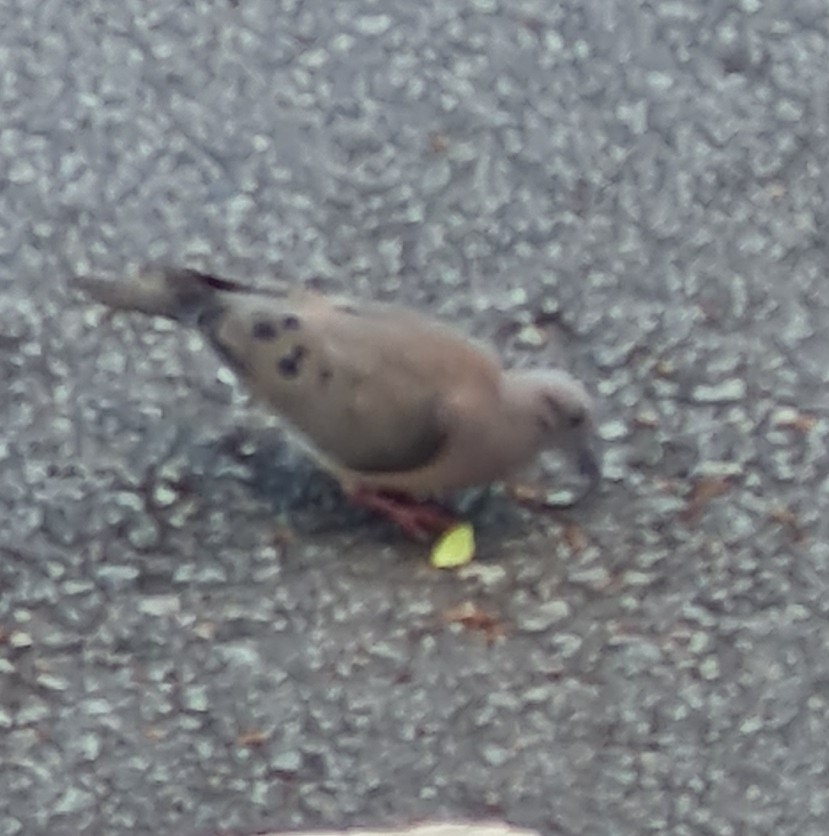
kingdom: Animalia
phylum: Chordata
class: Aves
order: Columbiformes
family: Columbidae
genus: Zenaida
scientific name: Zenaida auriculata
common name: Eared dove
